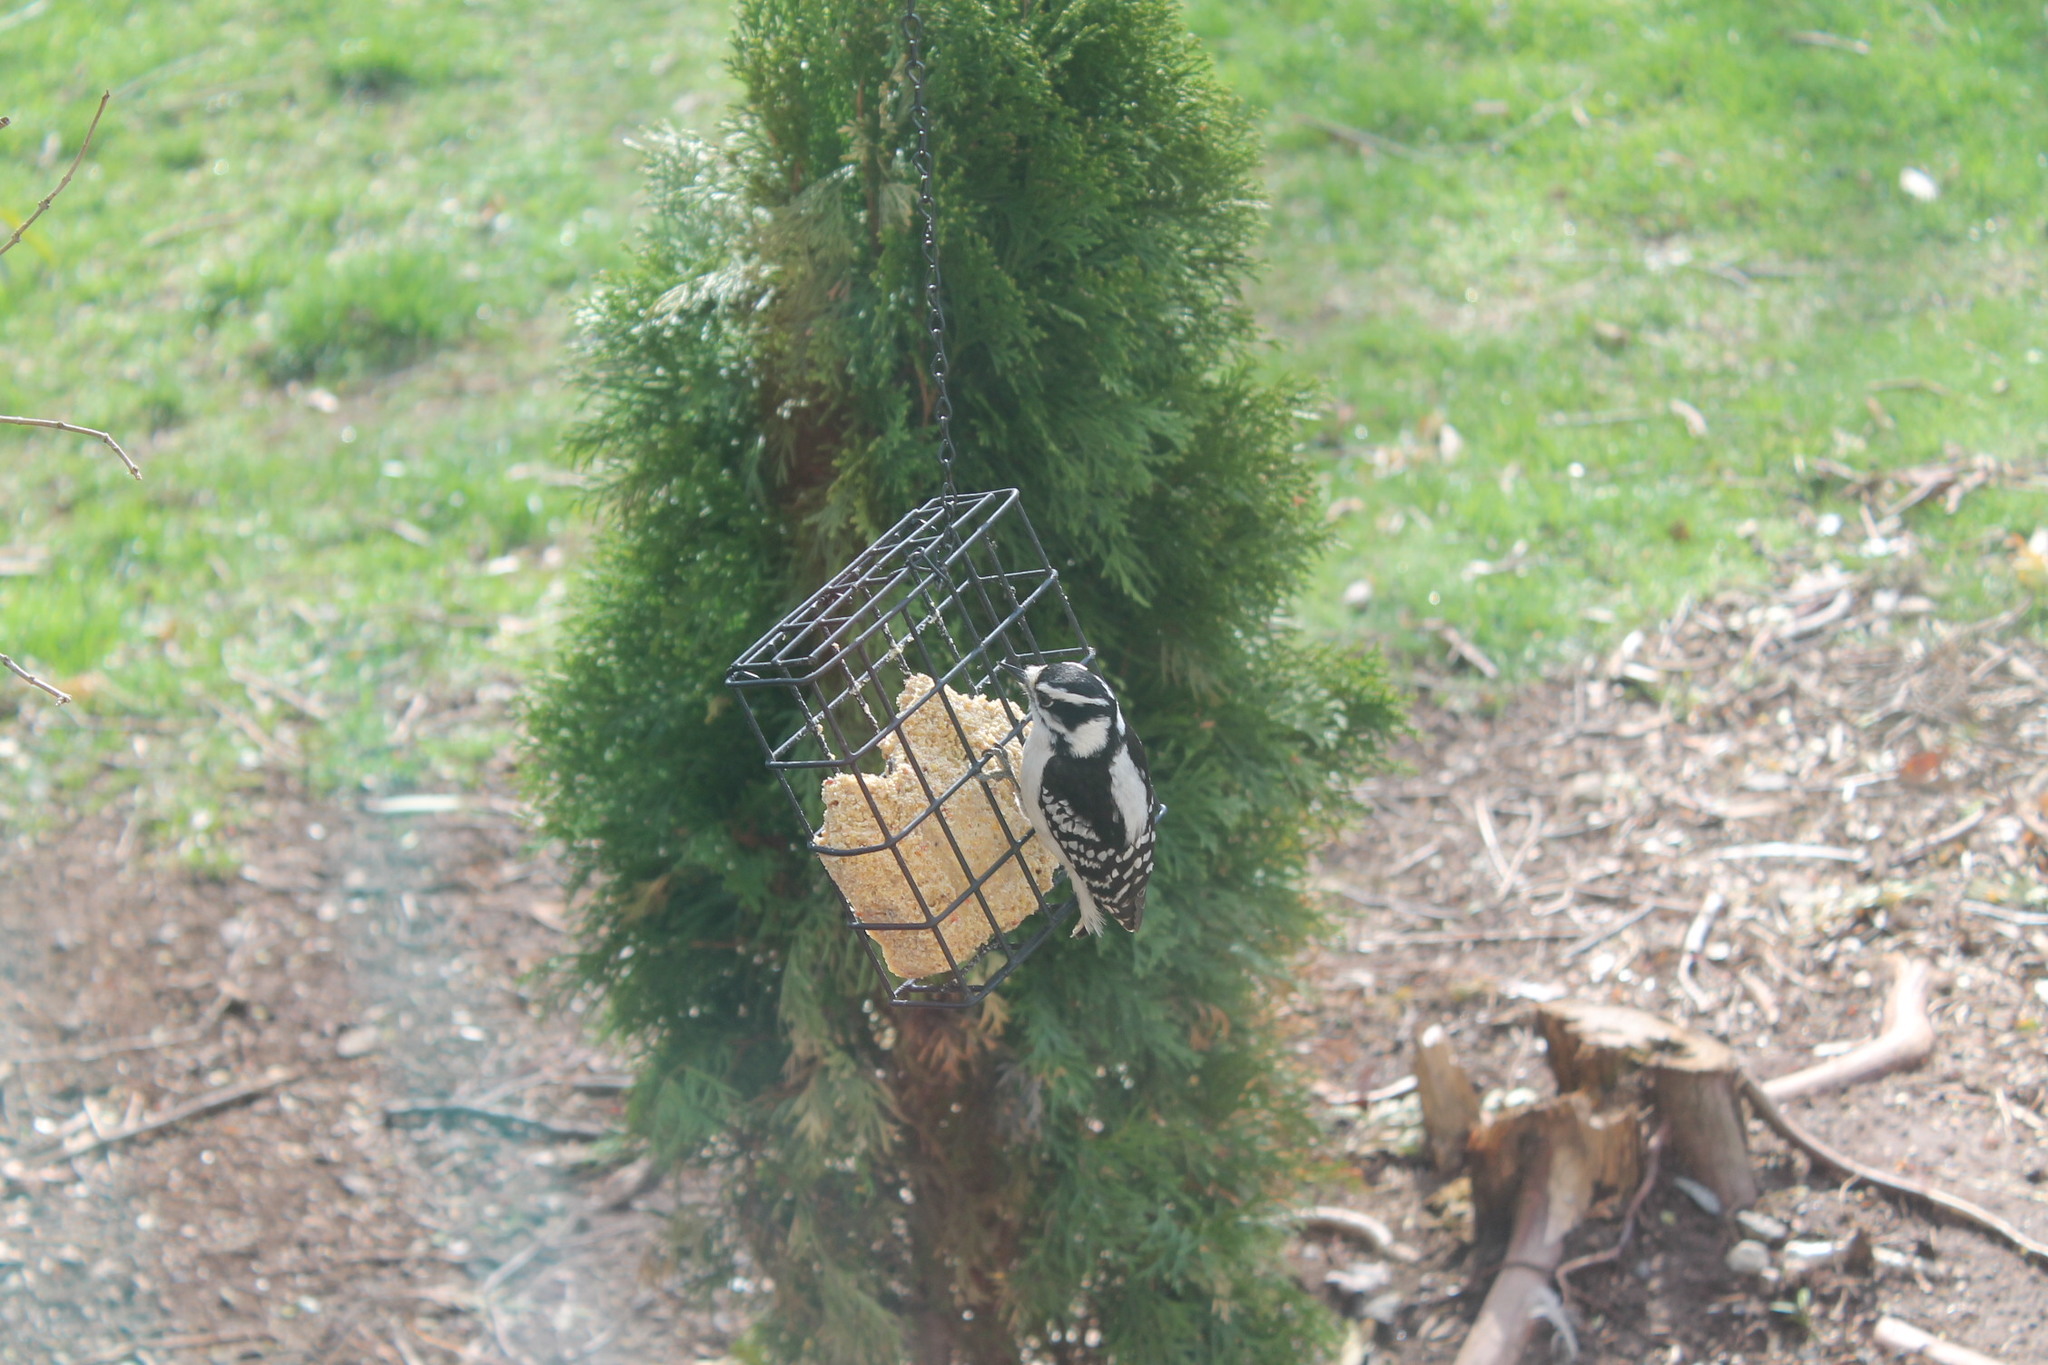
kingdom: Animalia
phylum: Chordata
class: Aves
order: Piciformes
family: Picidae
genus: Dryobates
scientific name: Dryobates pubescens
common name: Downy woodpecker
